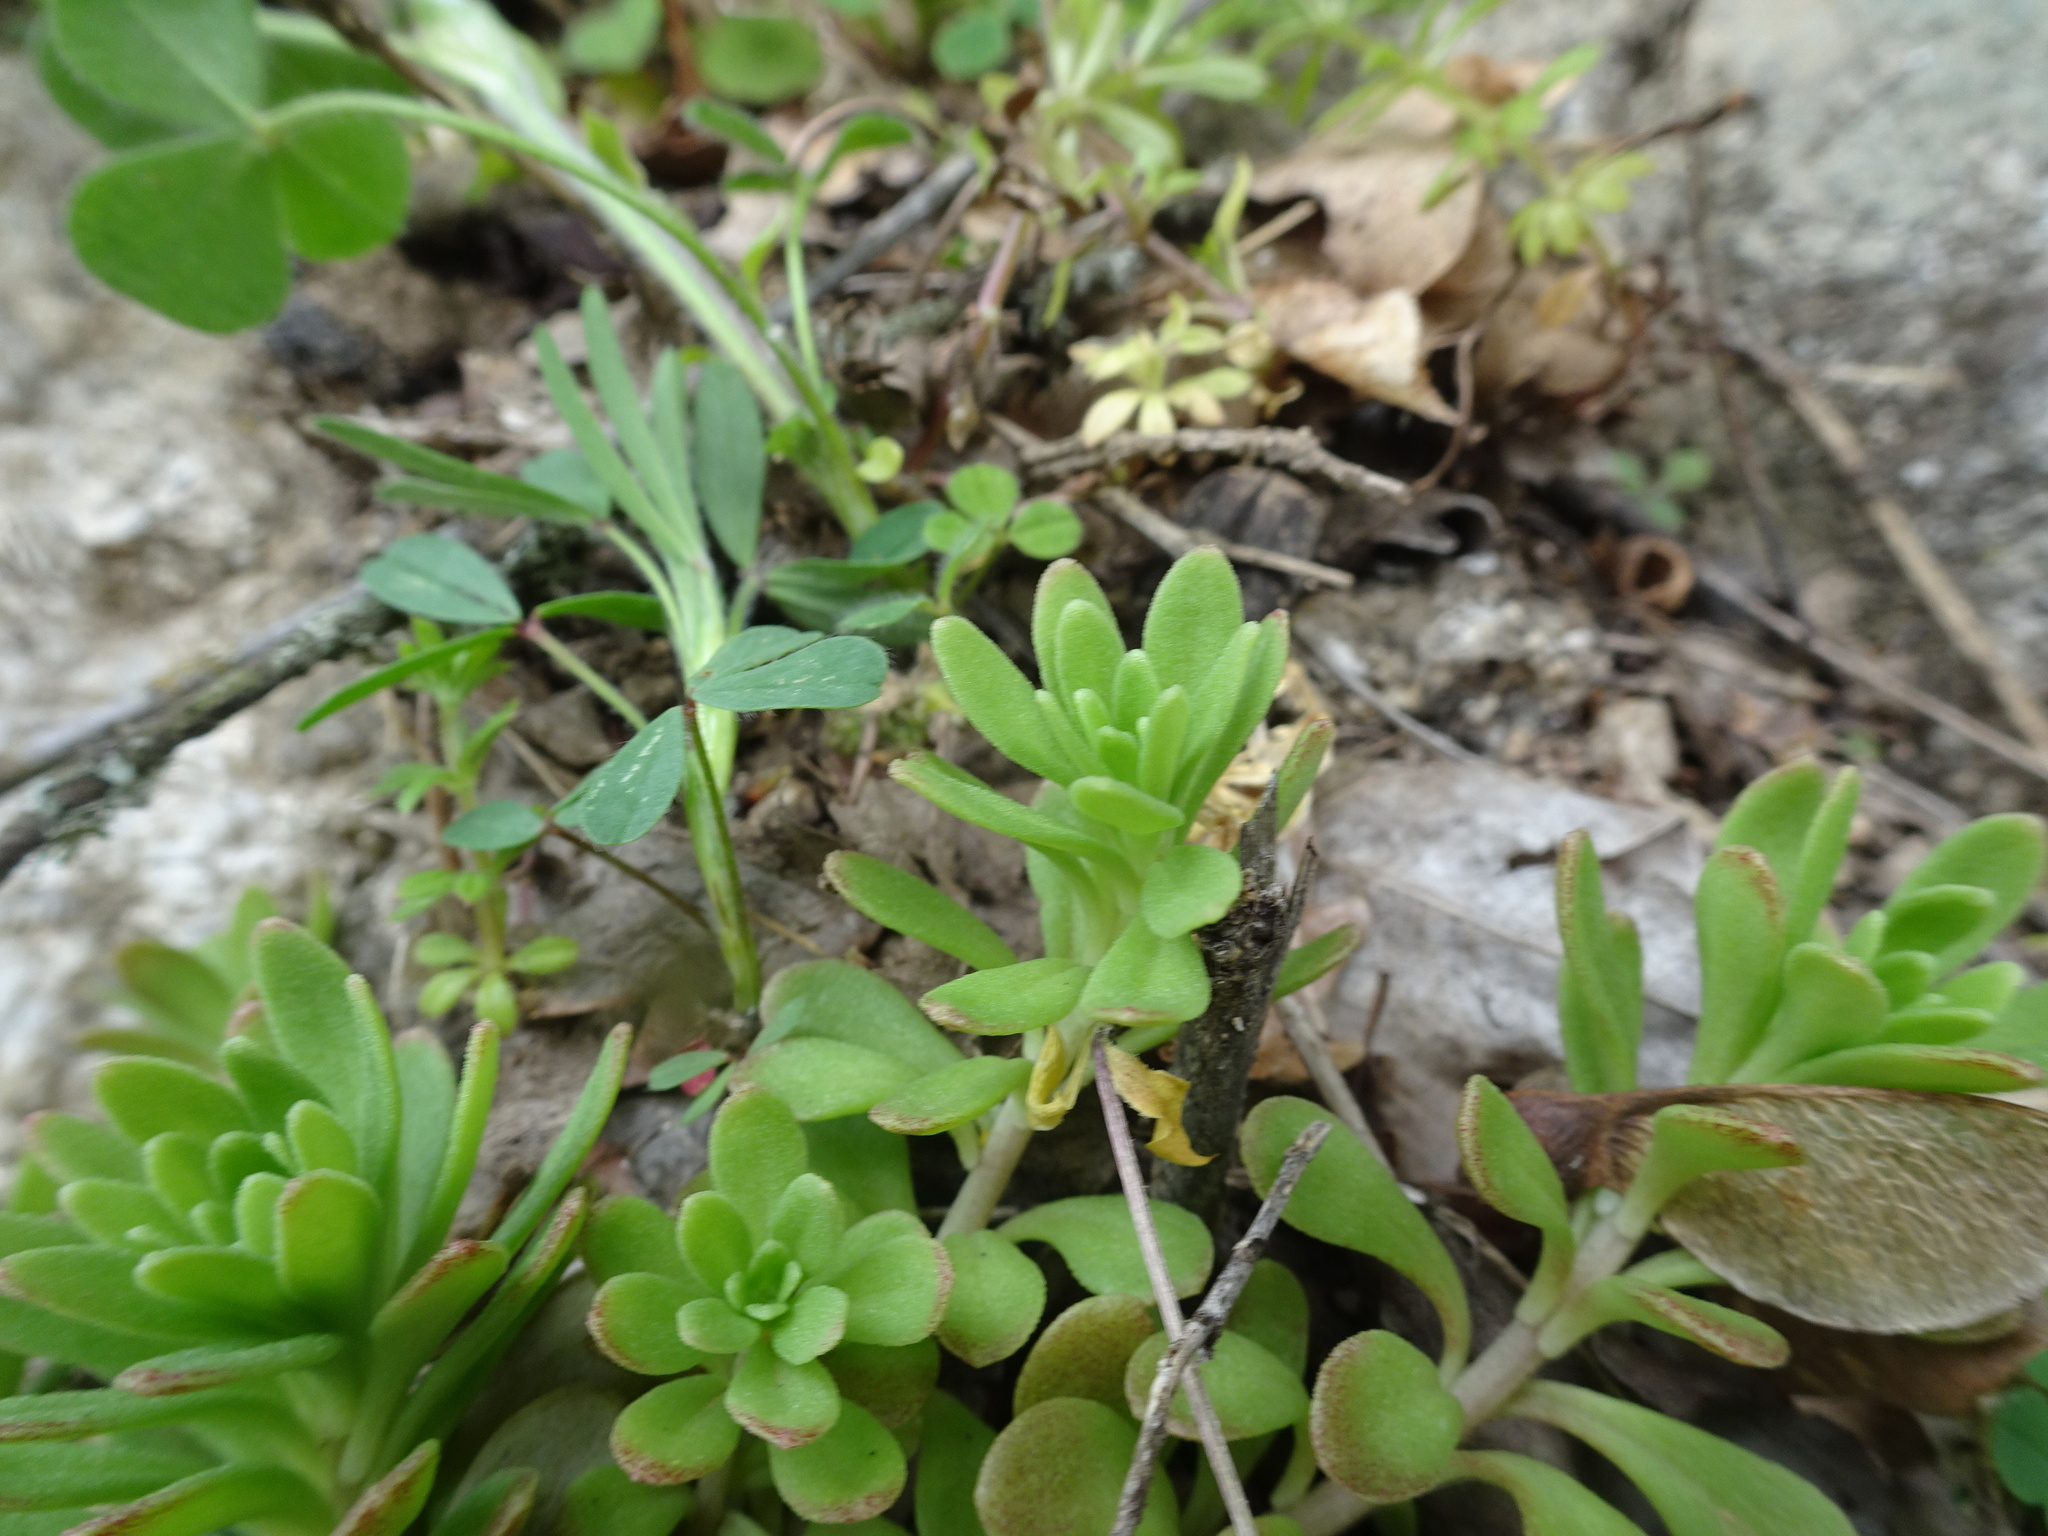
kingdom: Plantae
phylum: Tracheophyta
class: Magnoliopsida
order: Saxifragales
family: Crassulaceae
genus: Sedum
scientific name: Sedum cepaea
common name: Pink stonecrop
